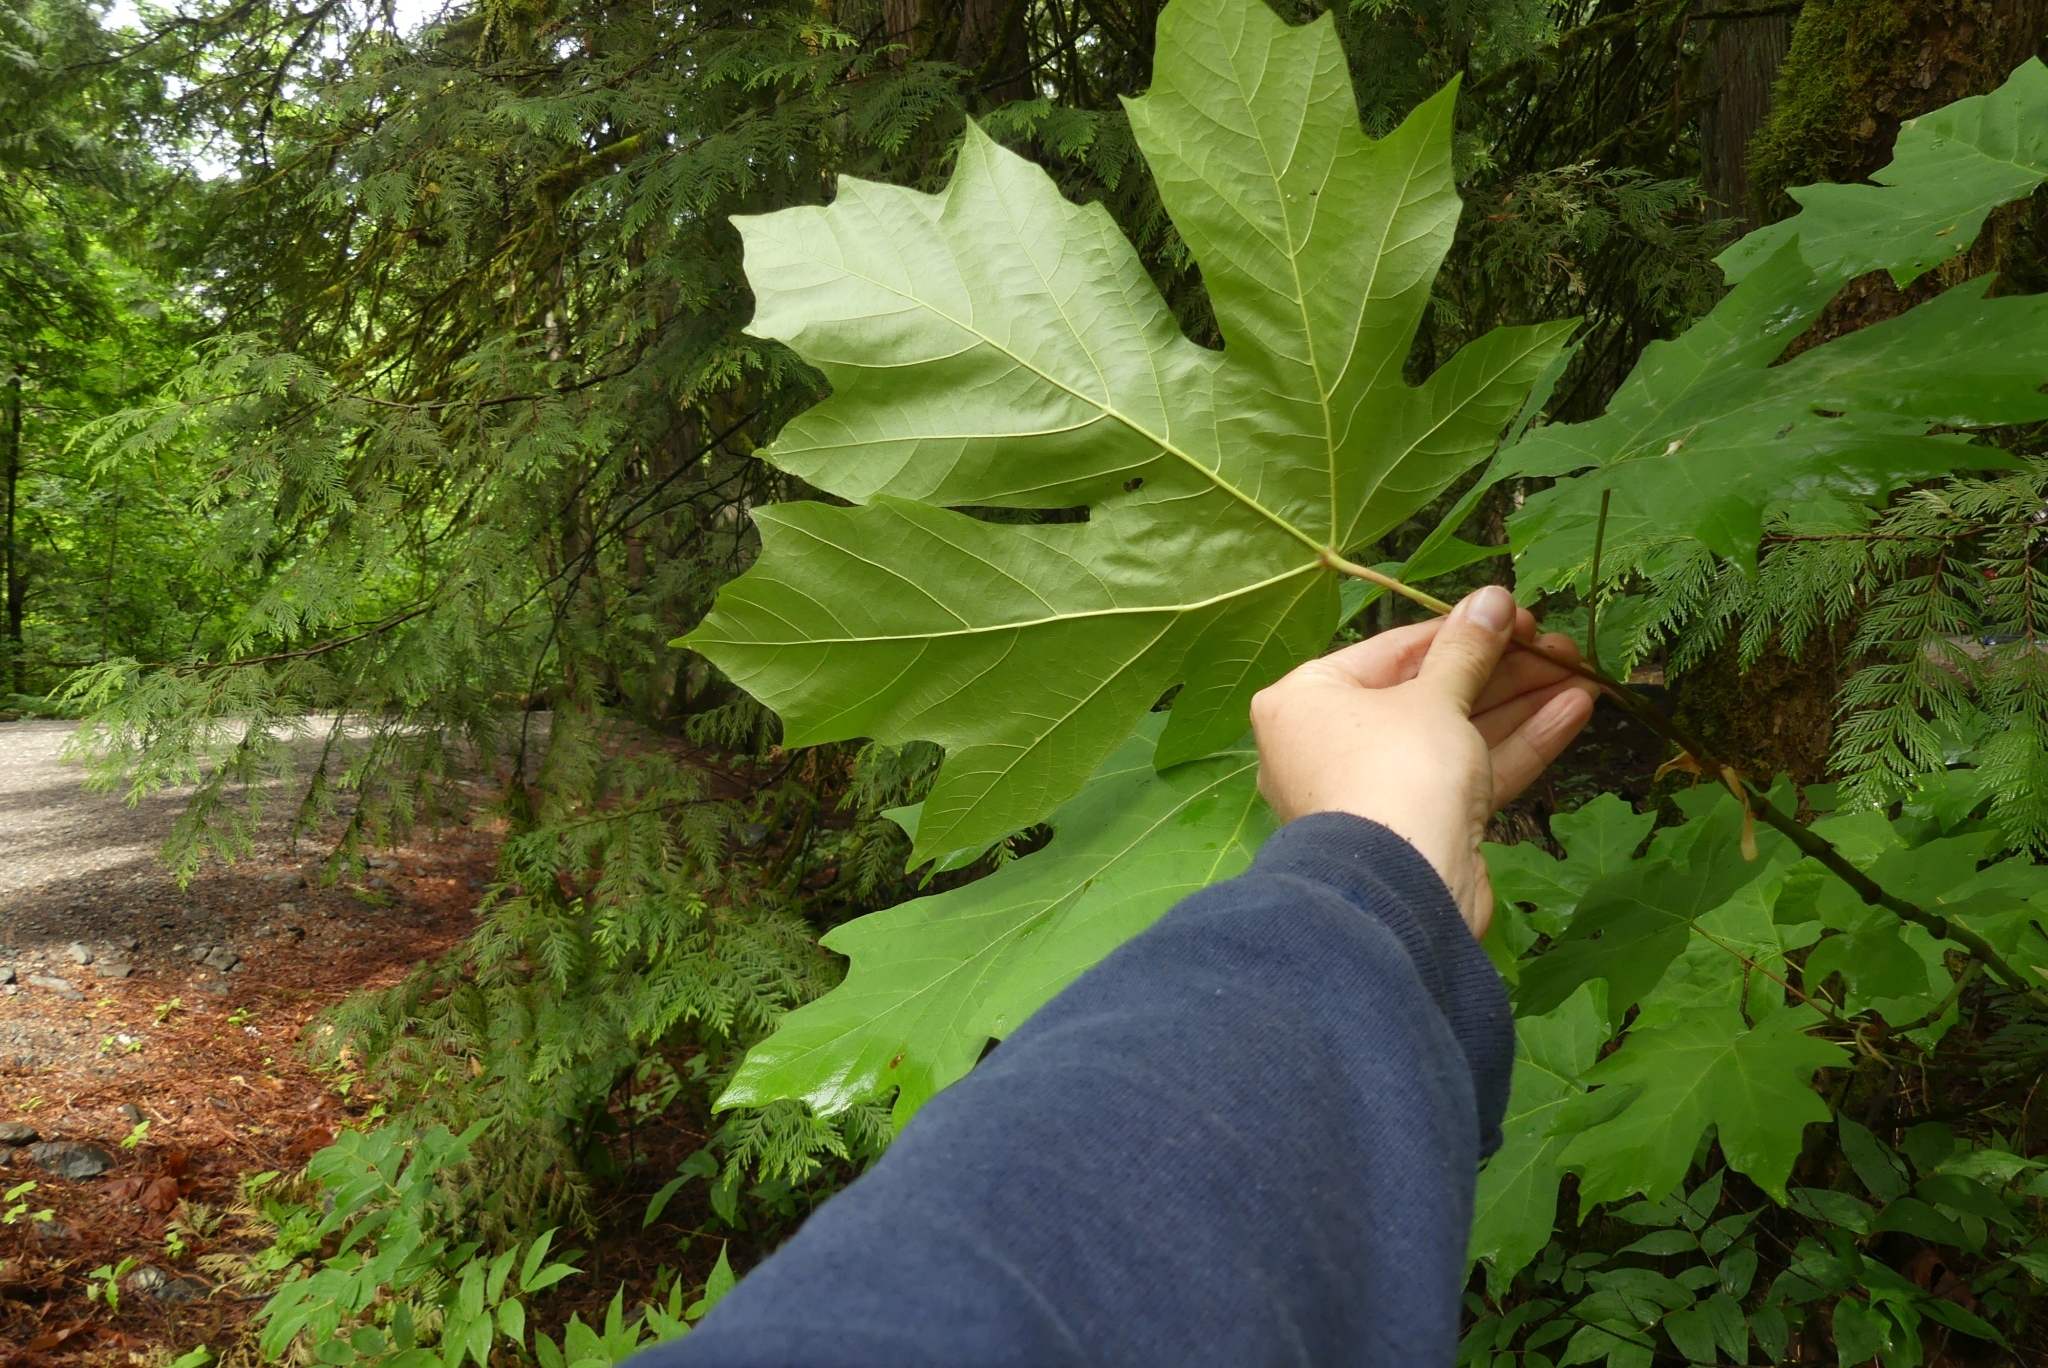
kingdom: Plantae
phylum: Tracheophyta
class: Magnoliopsida
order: Sapindales
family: Sapindaceae
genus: Acer
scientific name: Acer macrophyllum
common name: Oregon maple
